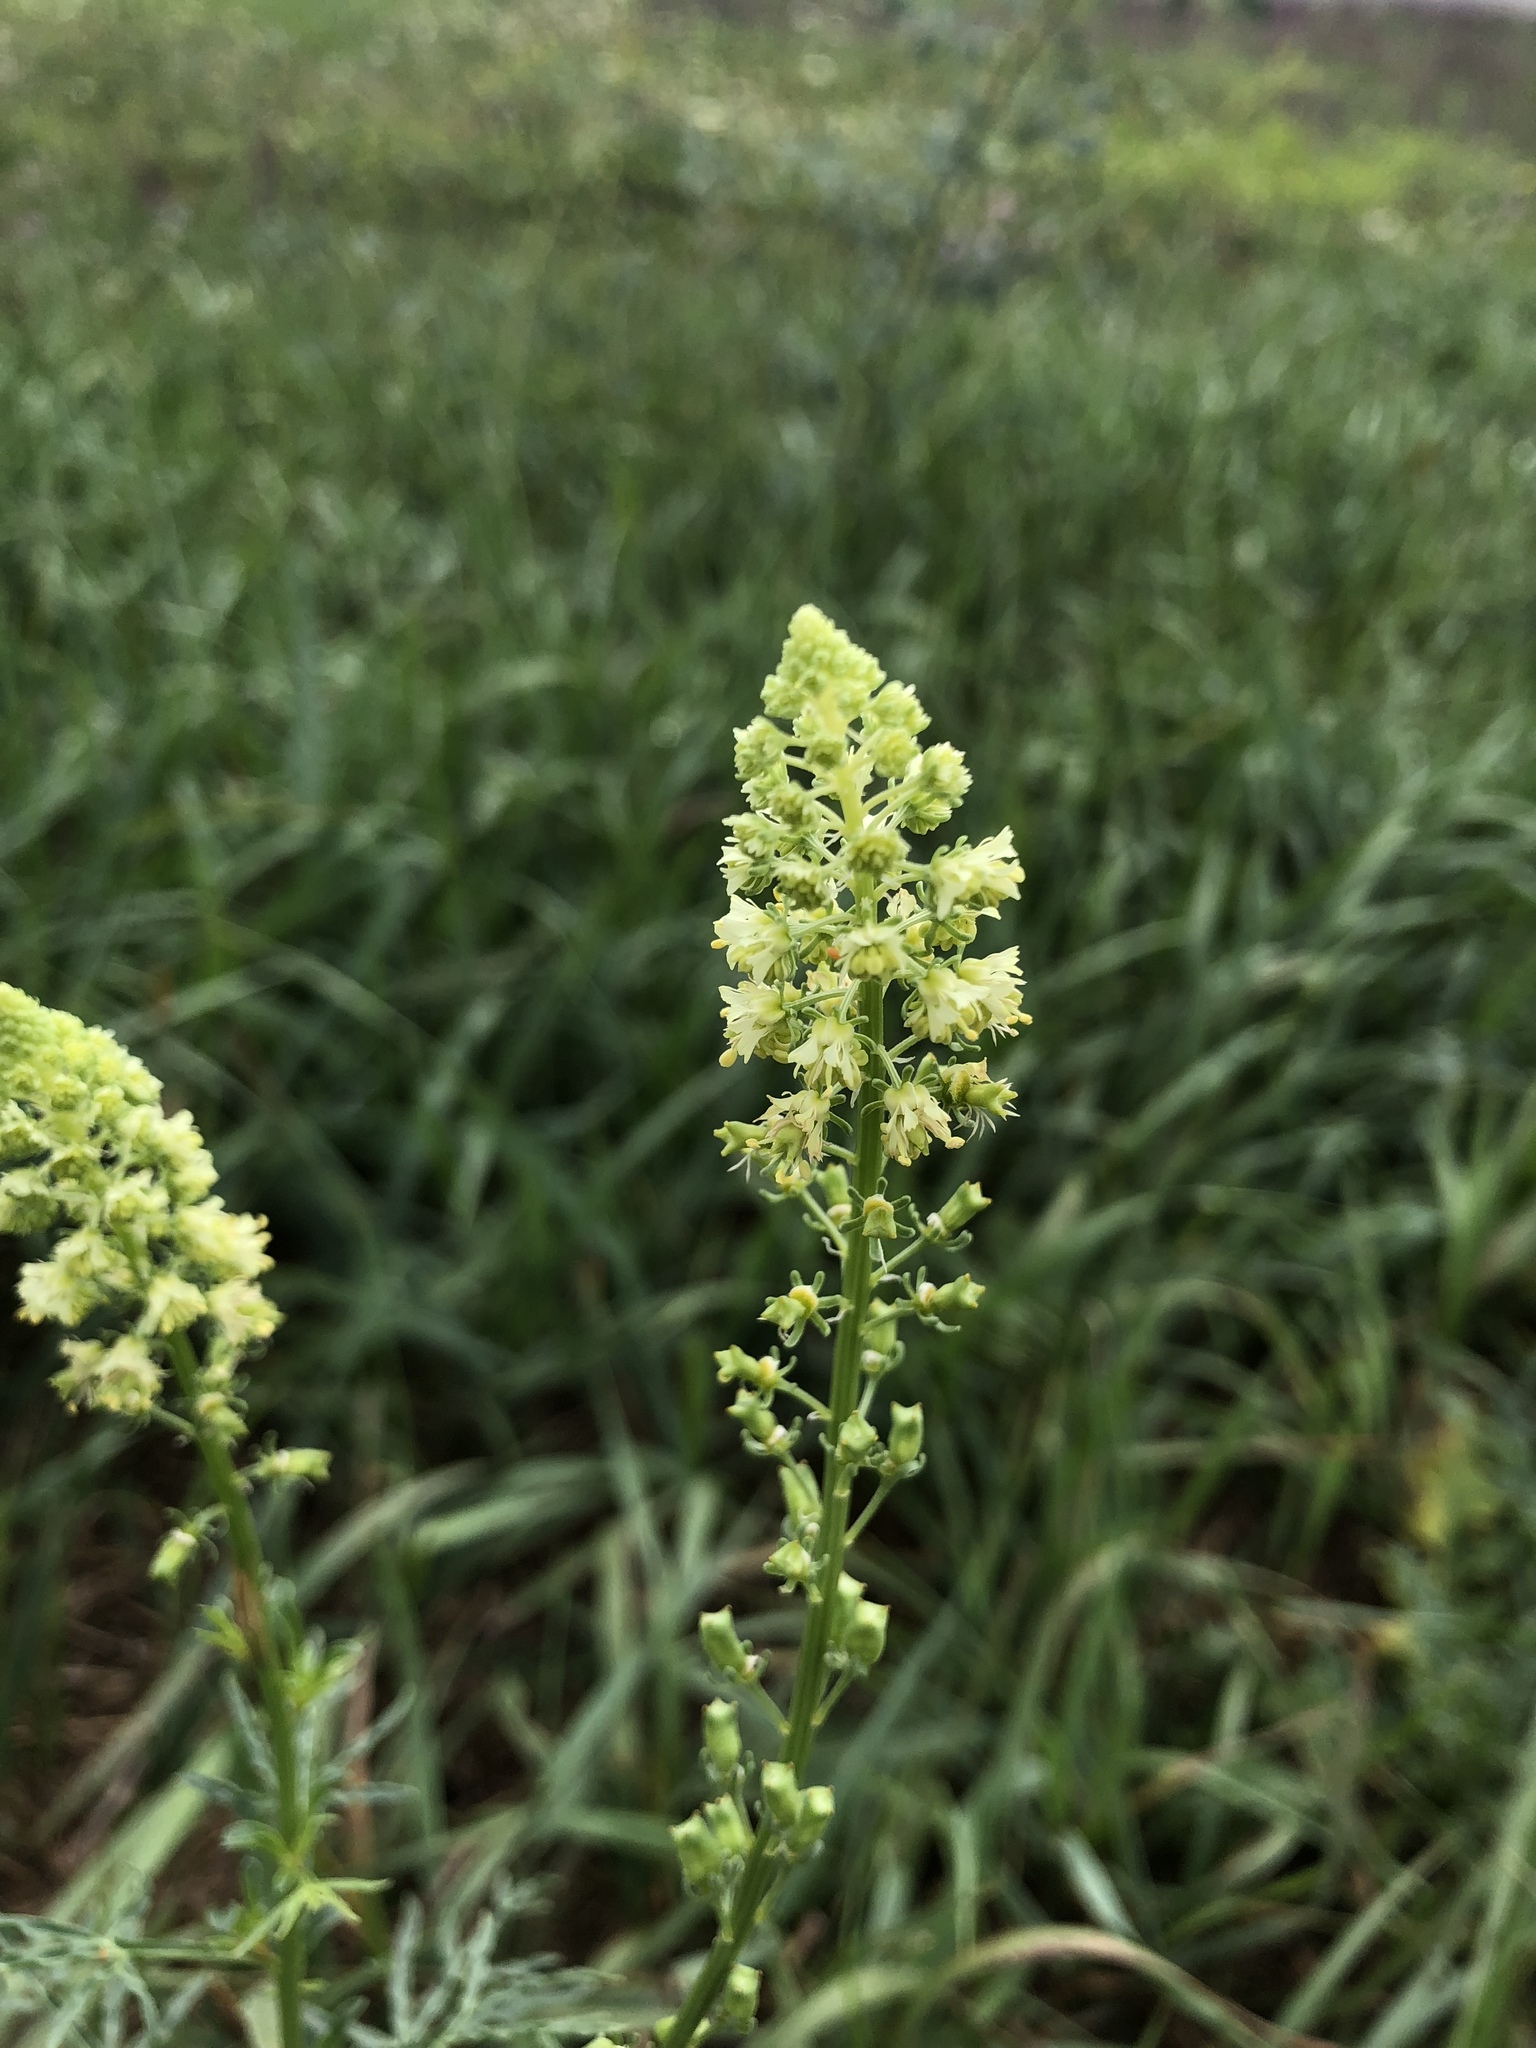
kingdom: Plantae
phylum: Tracheophyta
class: Magnoliopsida
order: Brassicales
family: Resedaceae
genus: Reseda
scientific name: Reseda lutea
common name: Wild mignonette
